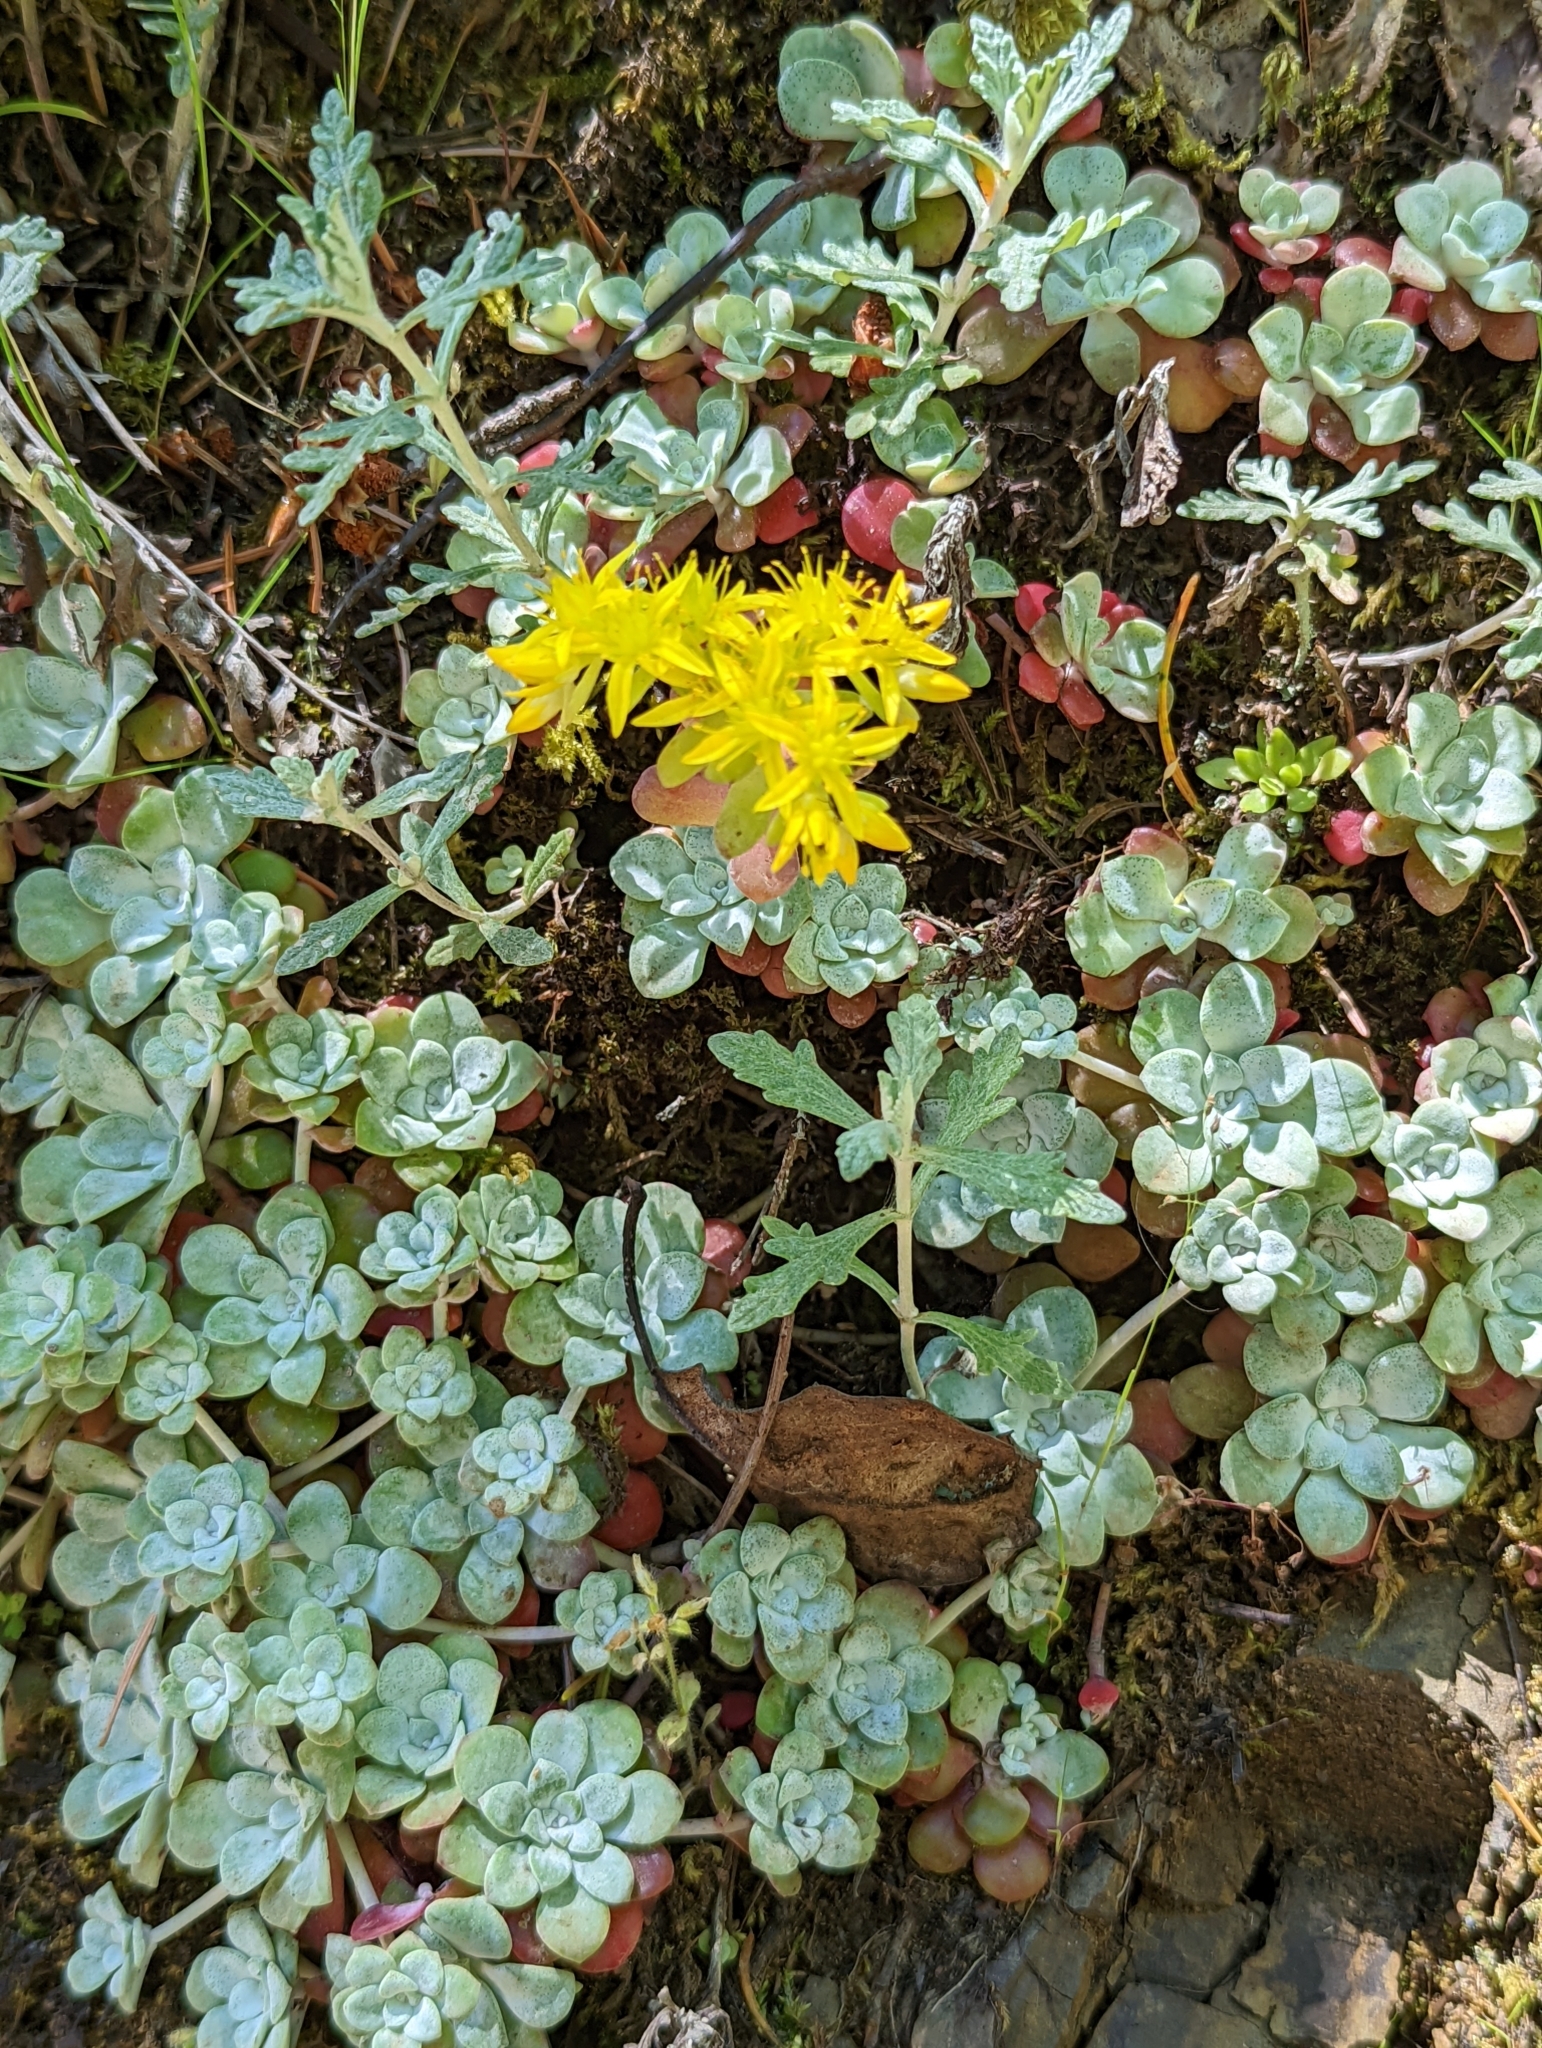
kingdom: Plantae
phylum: Tracheophyta
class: Magnoliopsida
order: Saxifragales
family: Crassulaceae
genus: Sedum
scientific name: Sedum spathulifolium
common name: Colorado stonecrop
